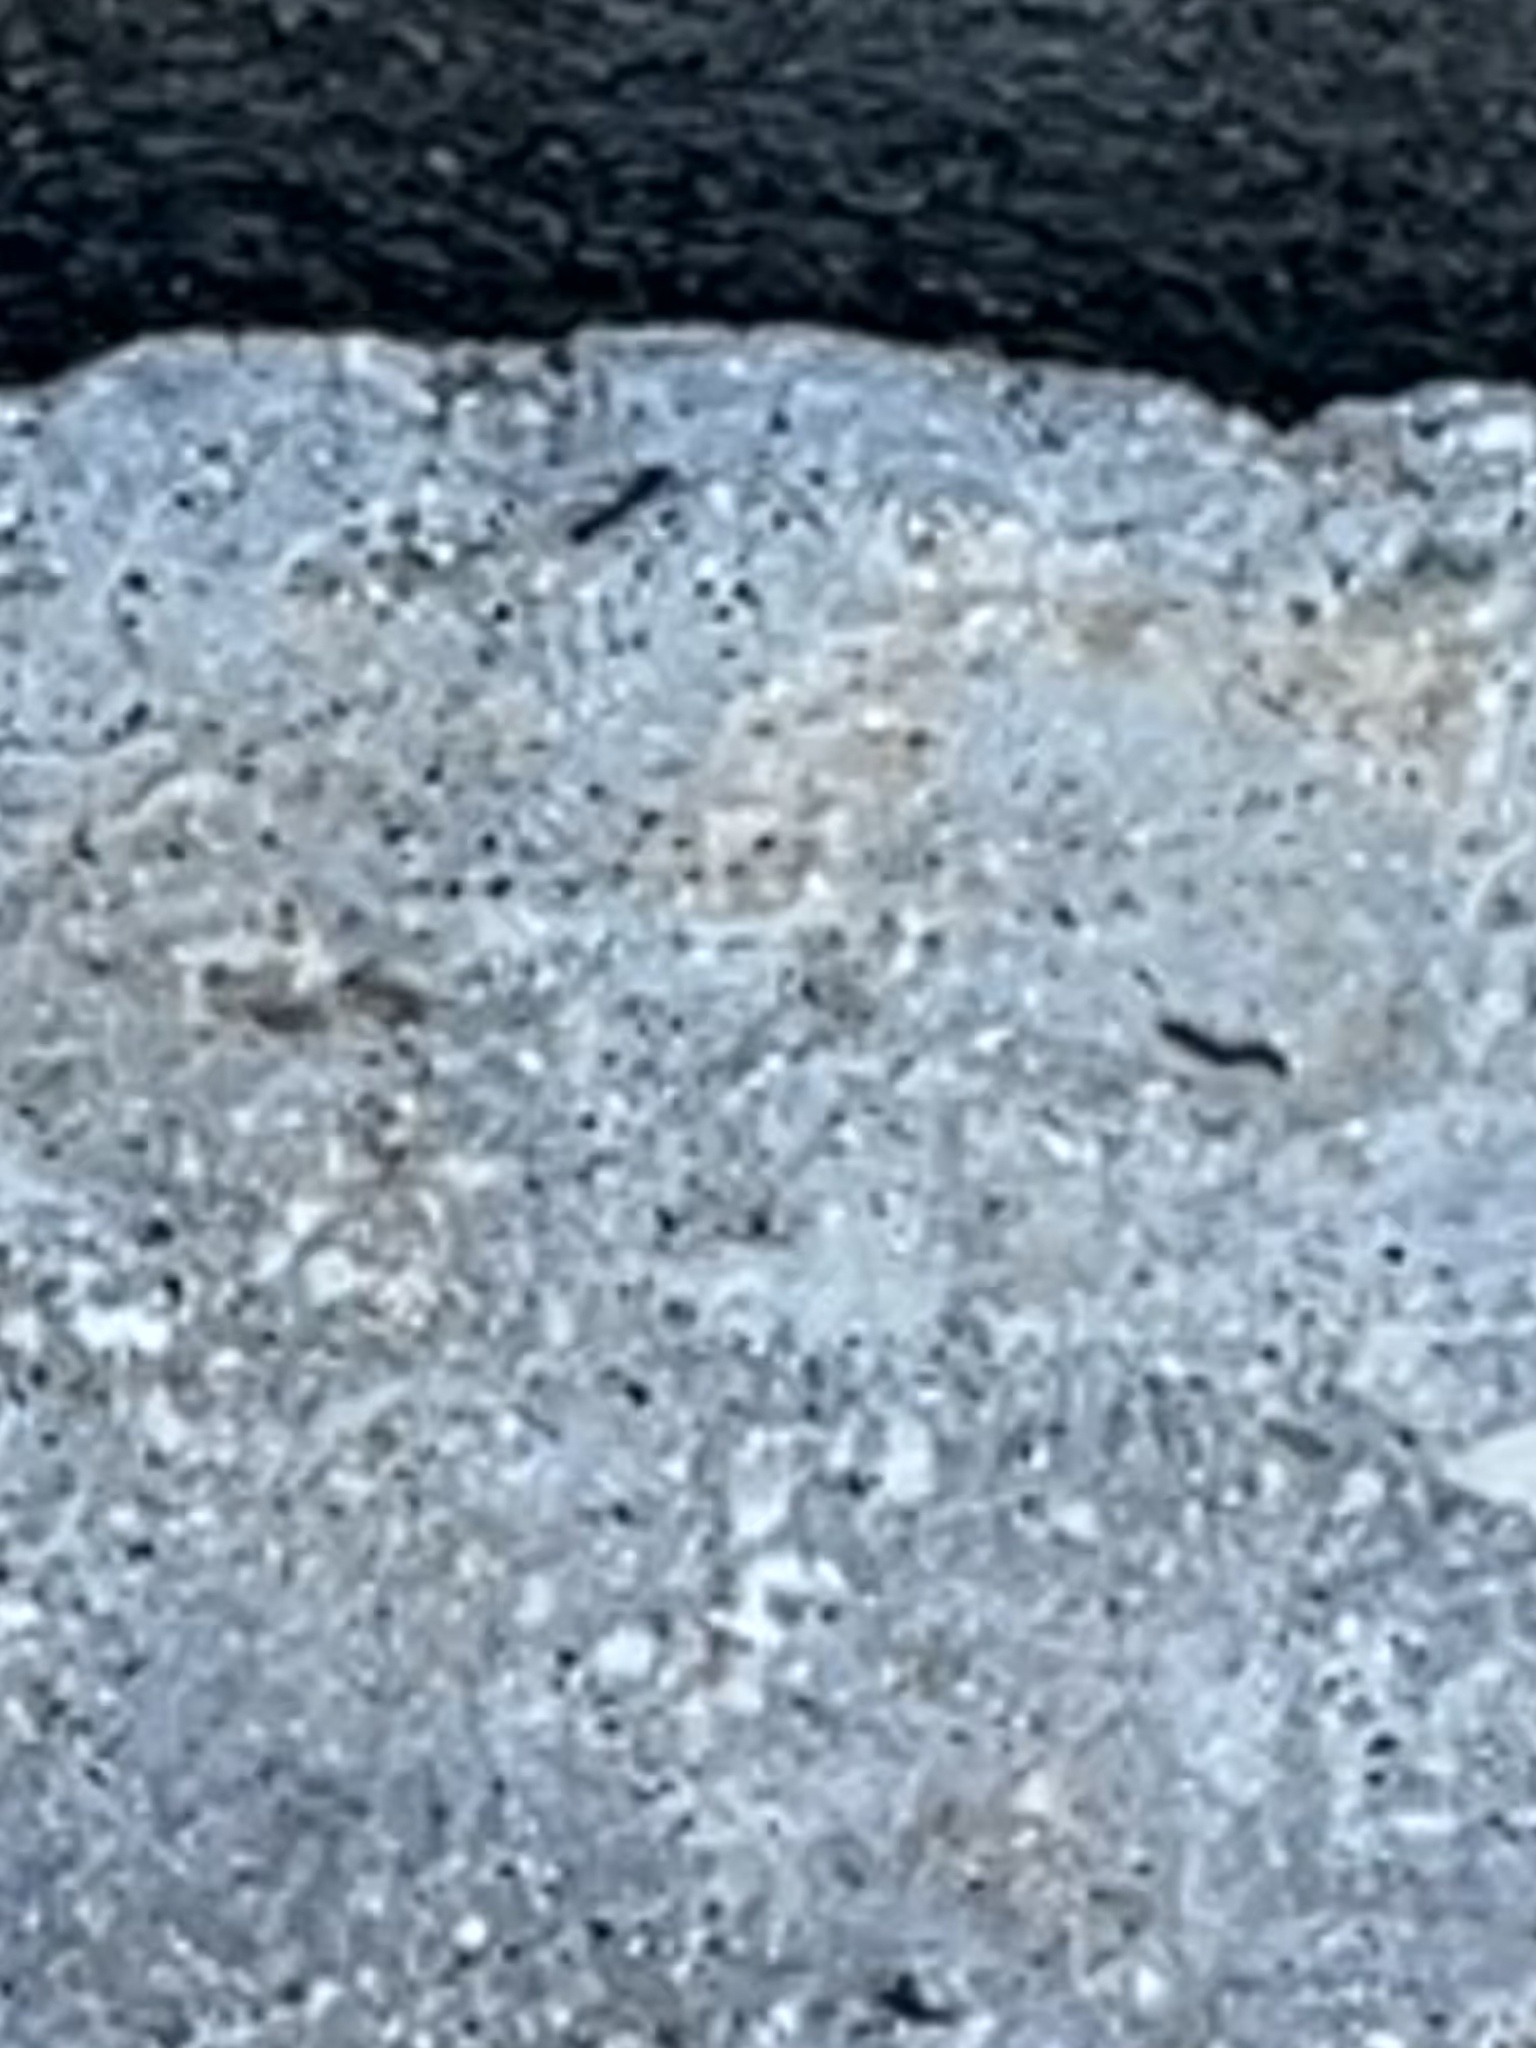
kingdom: Animalia
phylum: Arthropoda
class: Insecta
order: Hymenoptera
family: Formicidae
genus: Paratrechina
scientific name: Paratrechina longicornis
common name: Longhorned crazy ant
